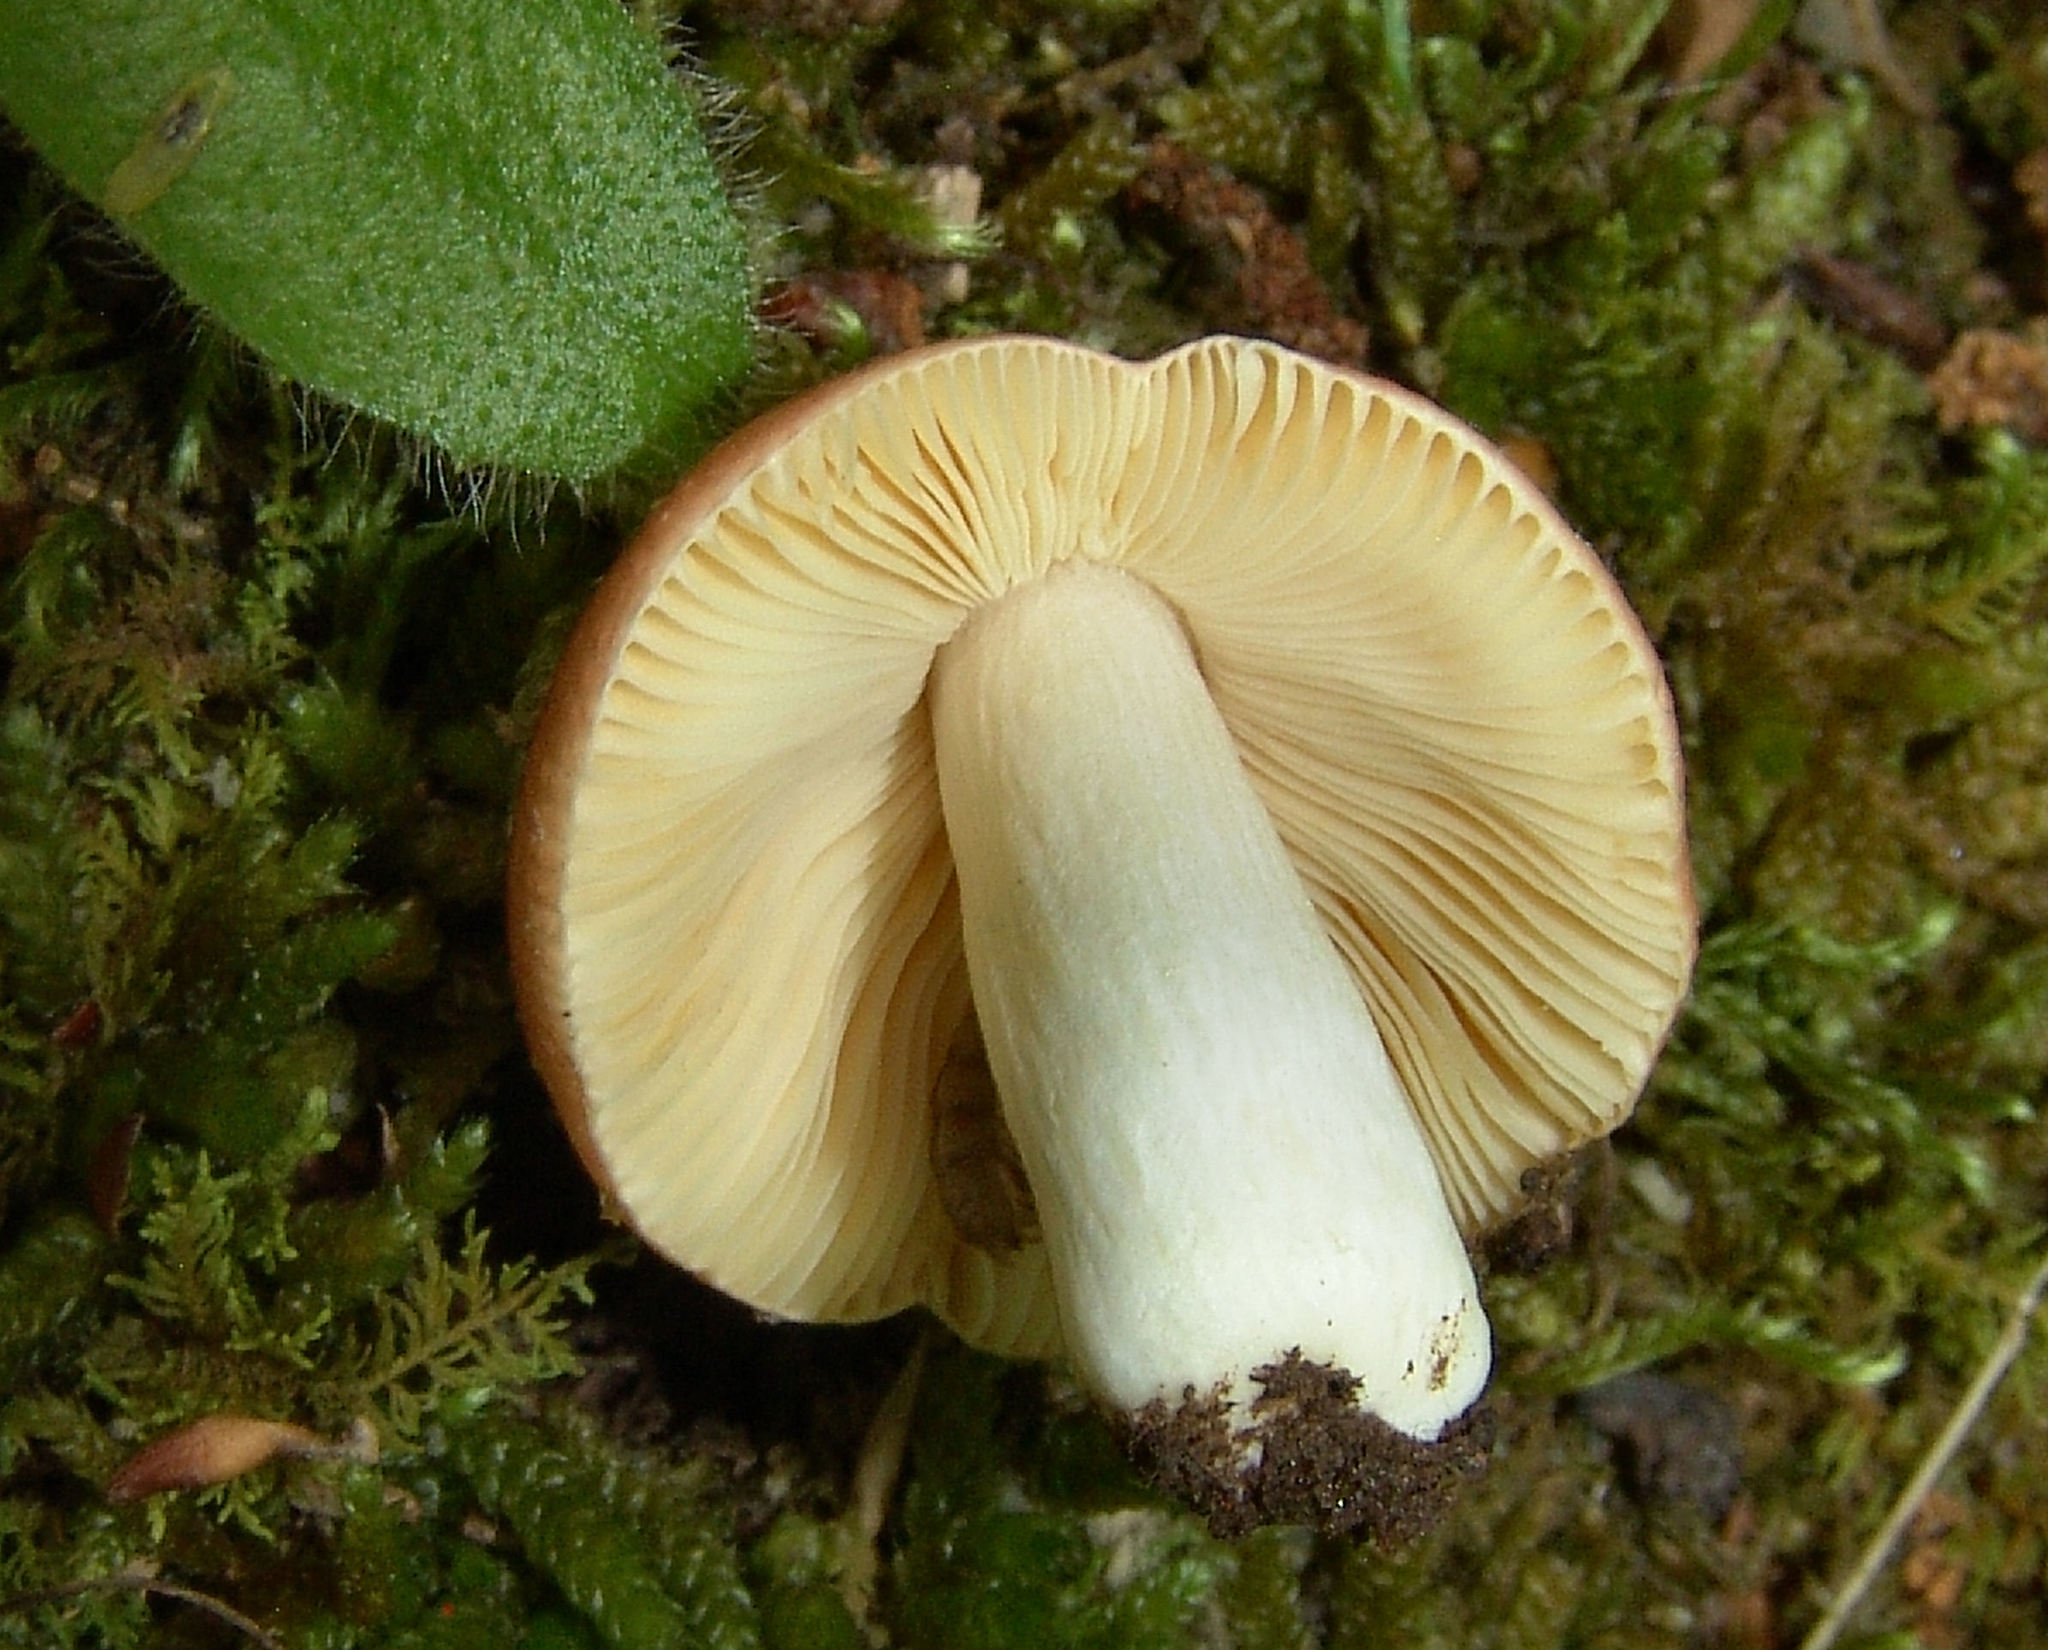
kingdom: Fungi
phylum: Basidiomycota
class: Agaricomycetes
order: Russulales
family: Russulaceae
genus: Russula
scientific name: Russula
